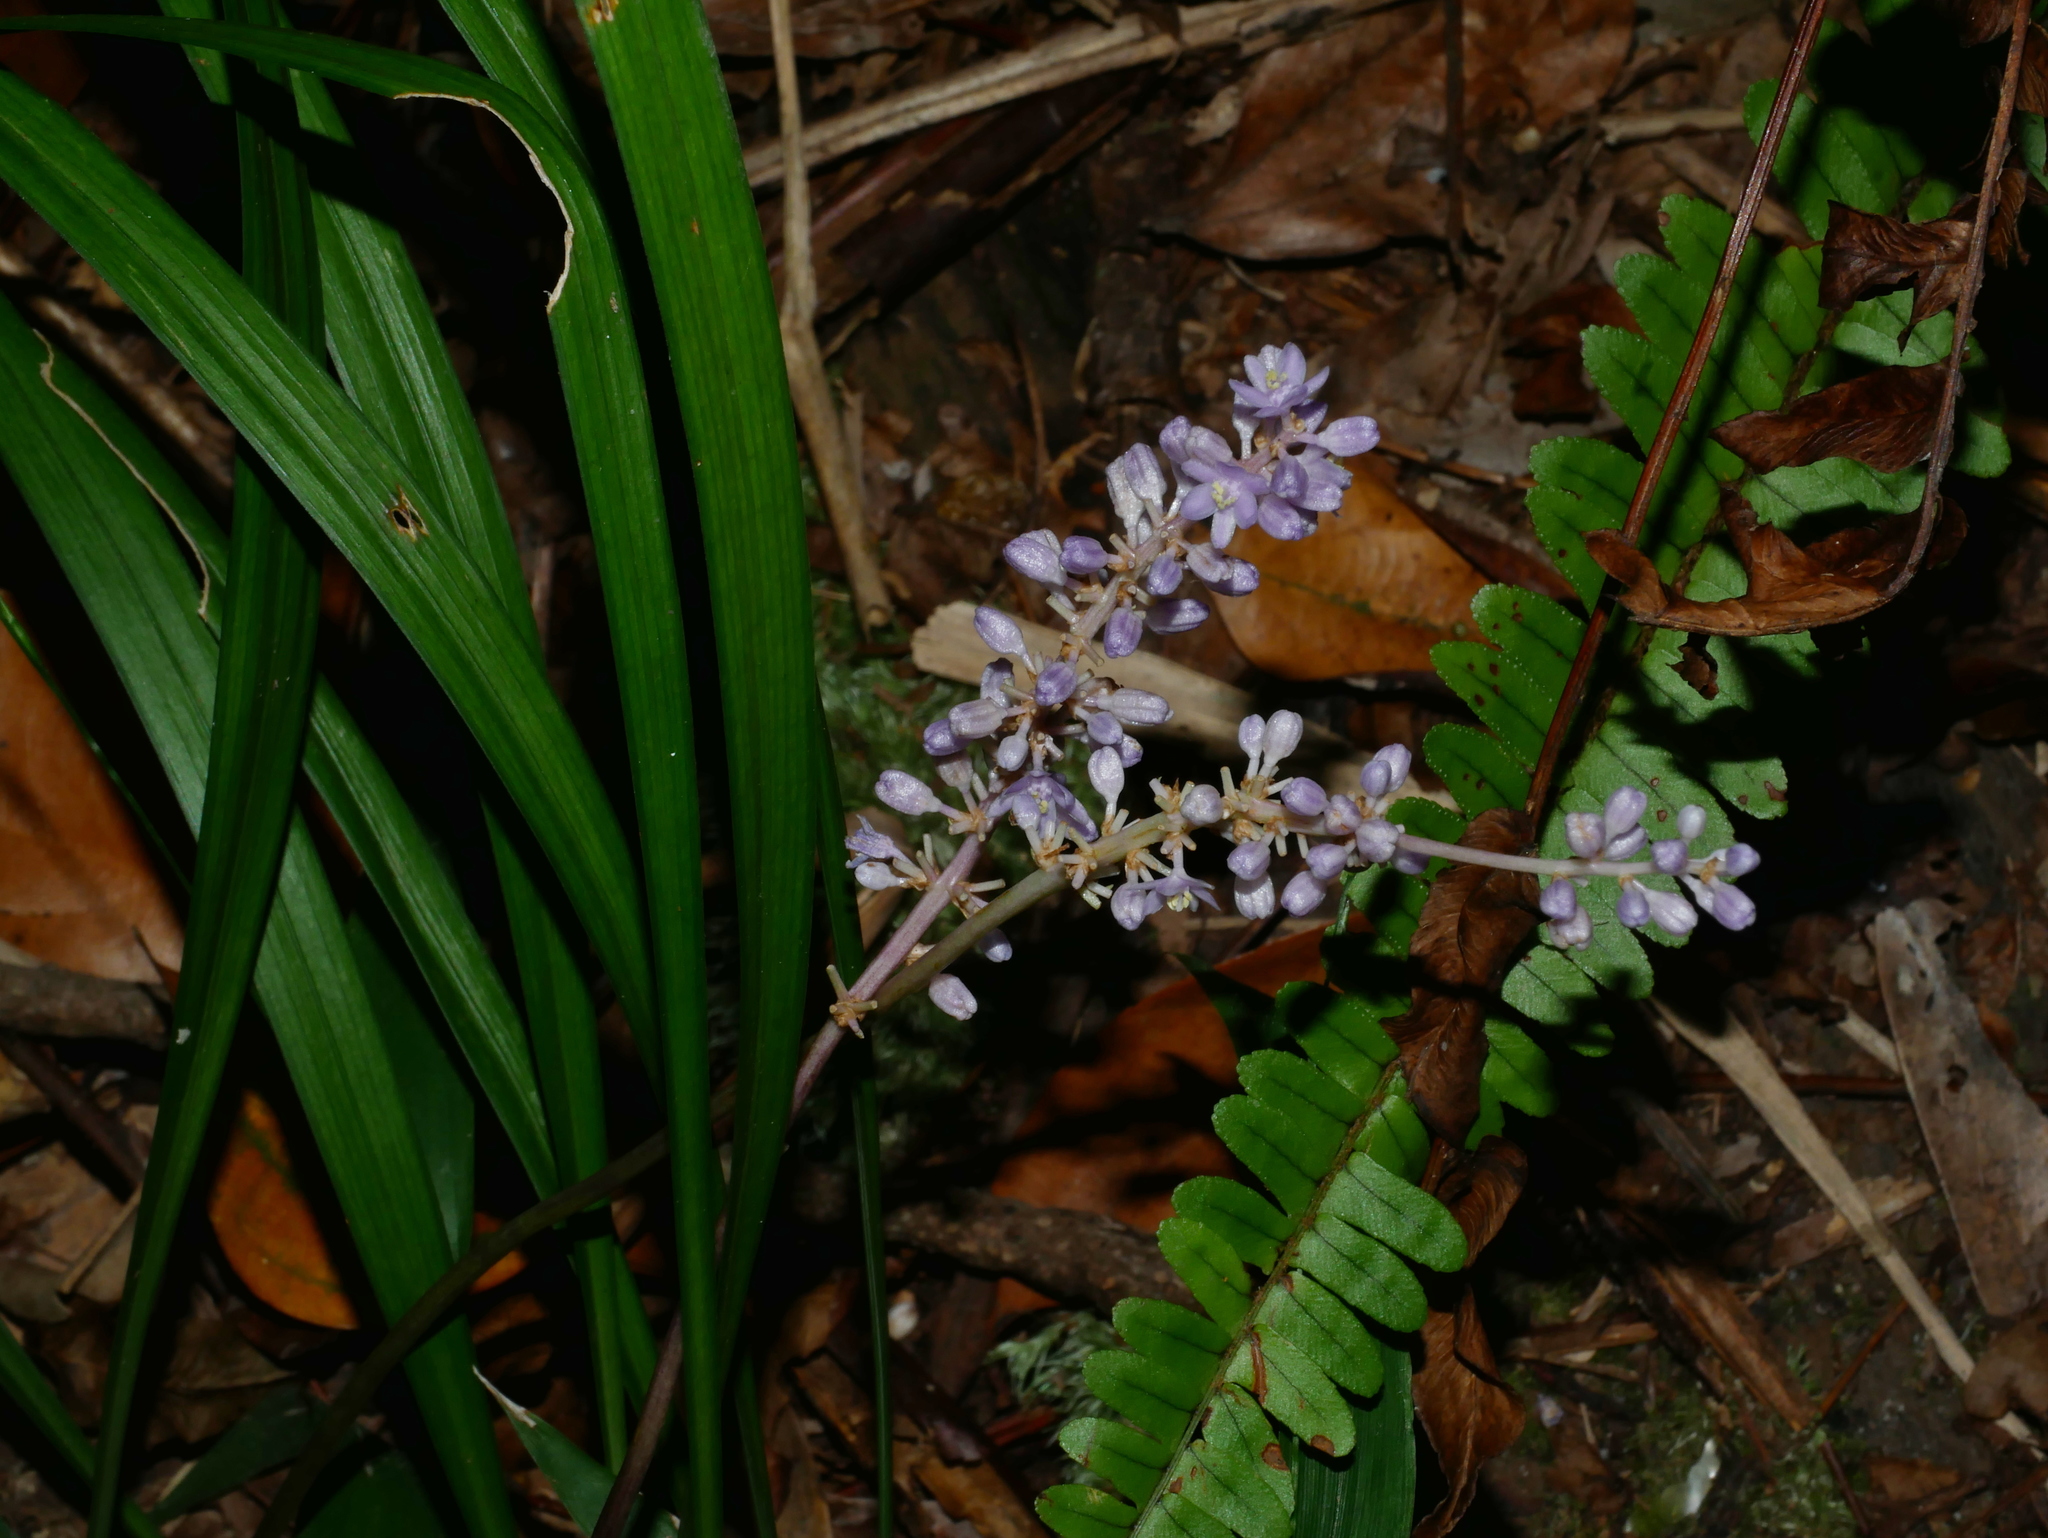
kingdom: Plantae
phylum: Tracheophyta
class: Liliopsida
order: Asparagales
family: Asparagaceae
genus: Liriope
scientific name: Liriope muscari
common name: Big blue lilyturf
